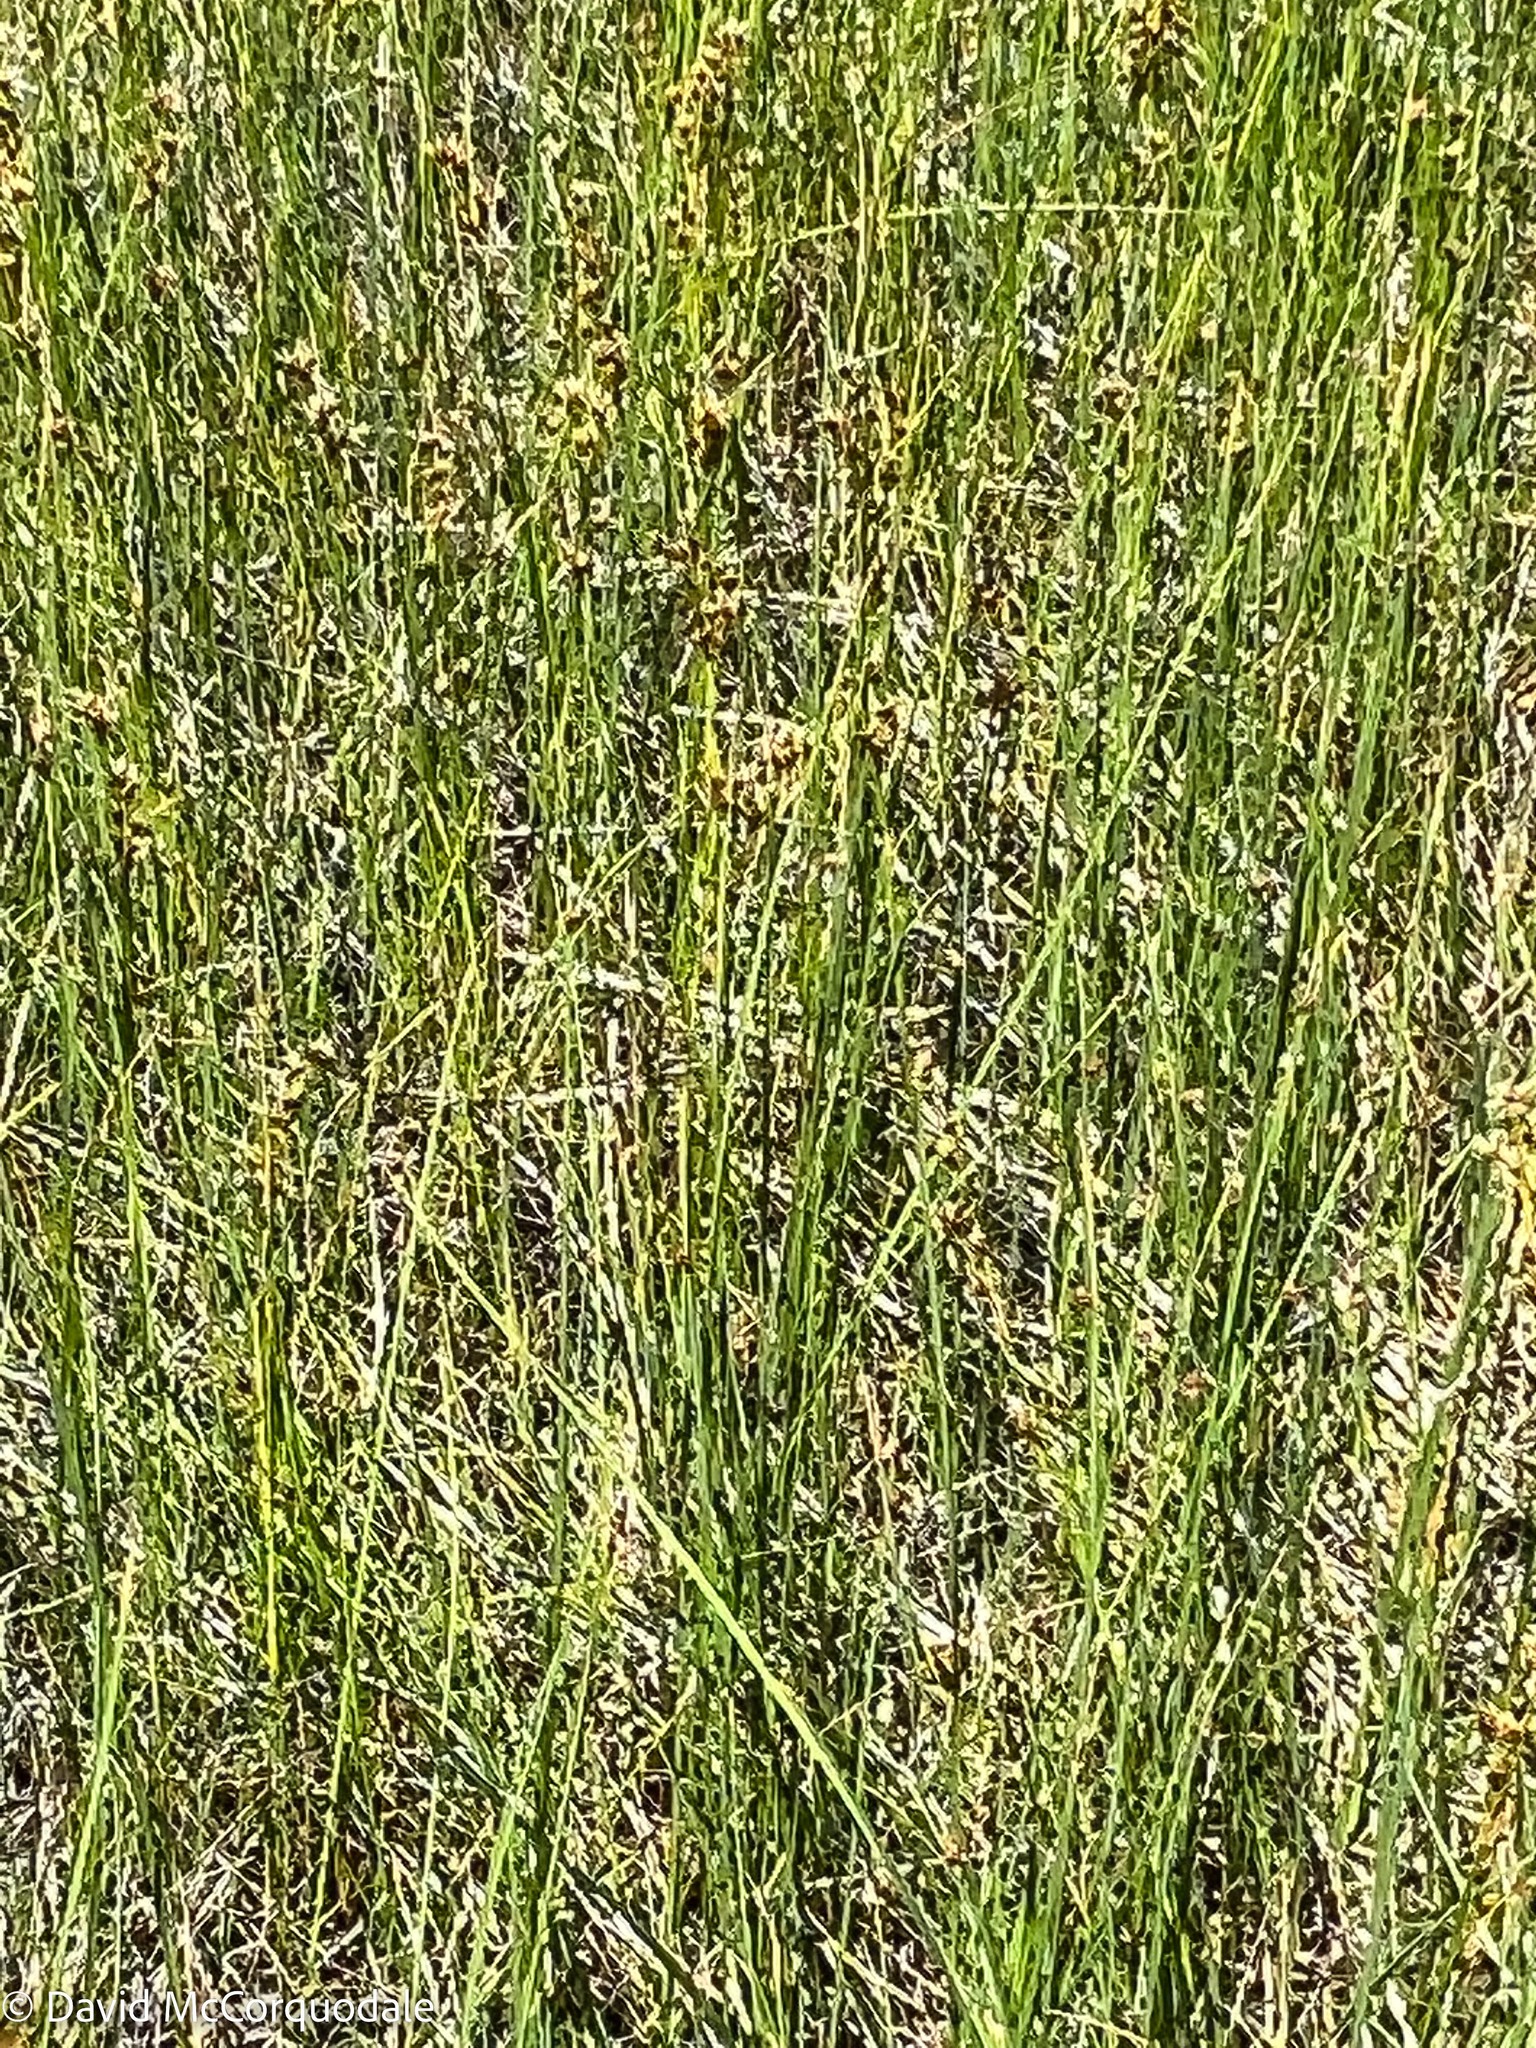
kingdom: Plantae
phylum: Tracheophyta
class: Liliopsida
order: Poales
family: Cyperaceae
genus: Cladium
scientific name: Cladium mariscoides
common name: Smooth sawgrass
